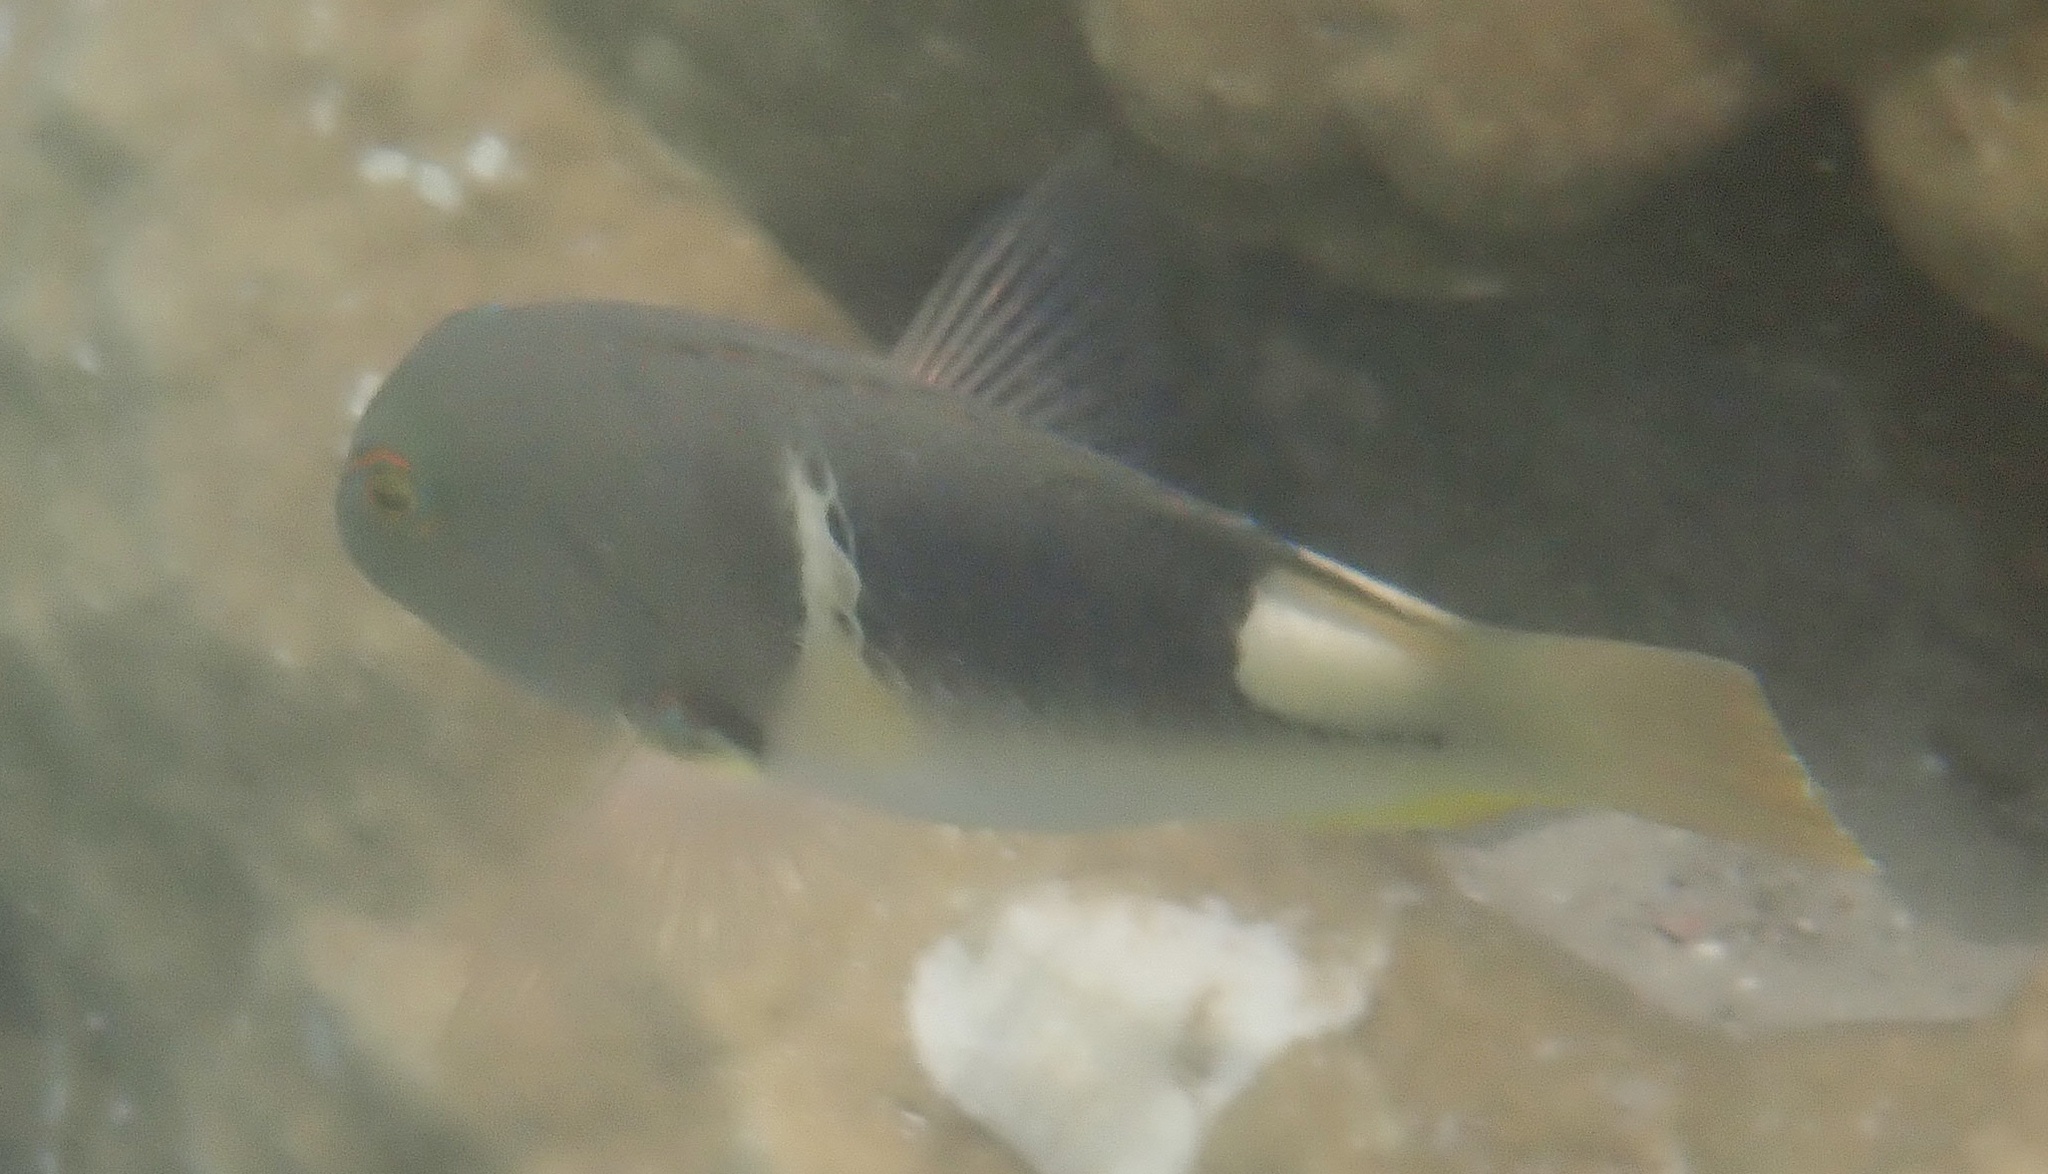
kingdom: Animalia
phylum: Chordata
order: Perciformes
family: Labridae
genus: Choerodon
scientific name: Choerodon anchorago
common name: Anchor tuskfish
